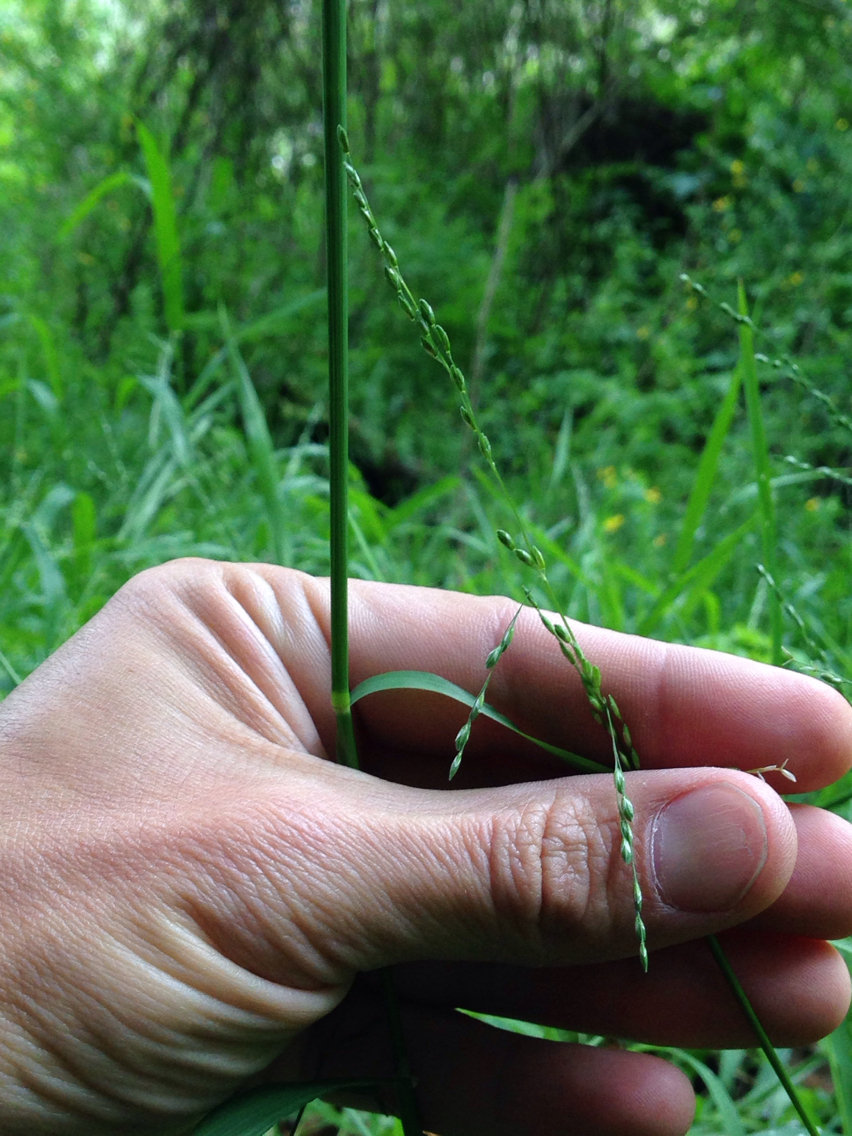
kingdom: Plantae
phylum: Tracheophyta
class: Liliopsida
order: Poales
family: Poaceae
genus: Ehrharta
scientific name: Ehrharta erecta
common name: Panic veldtgrass
